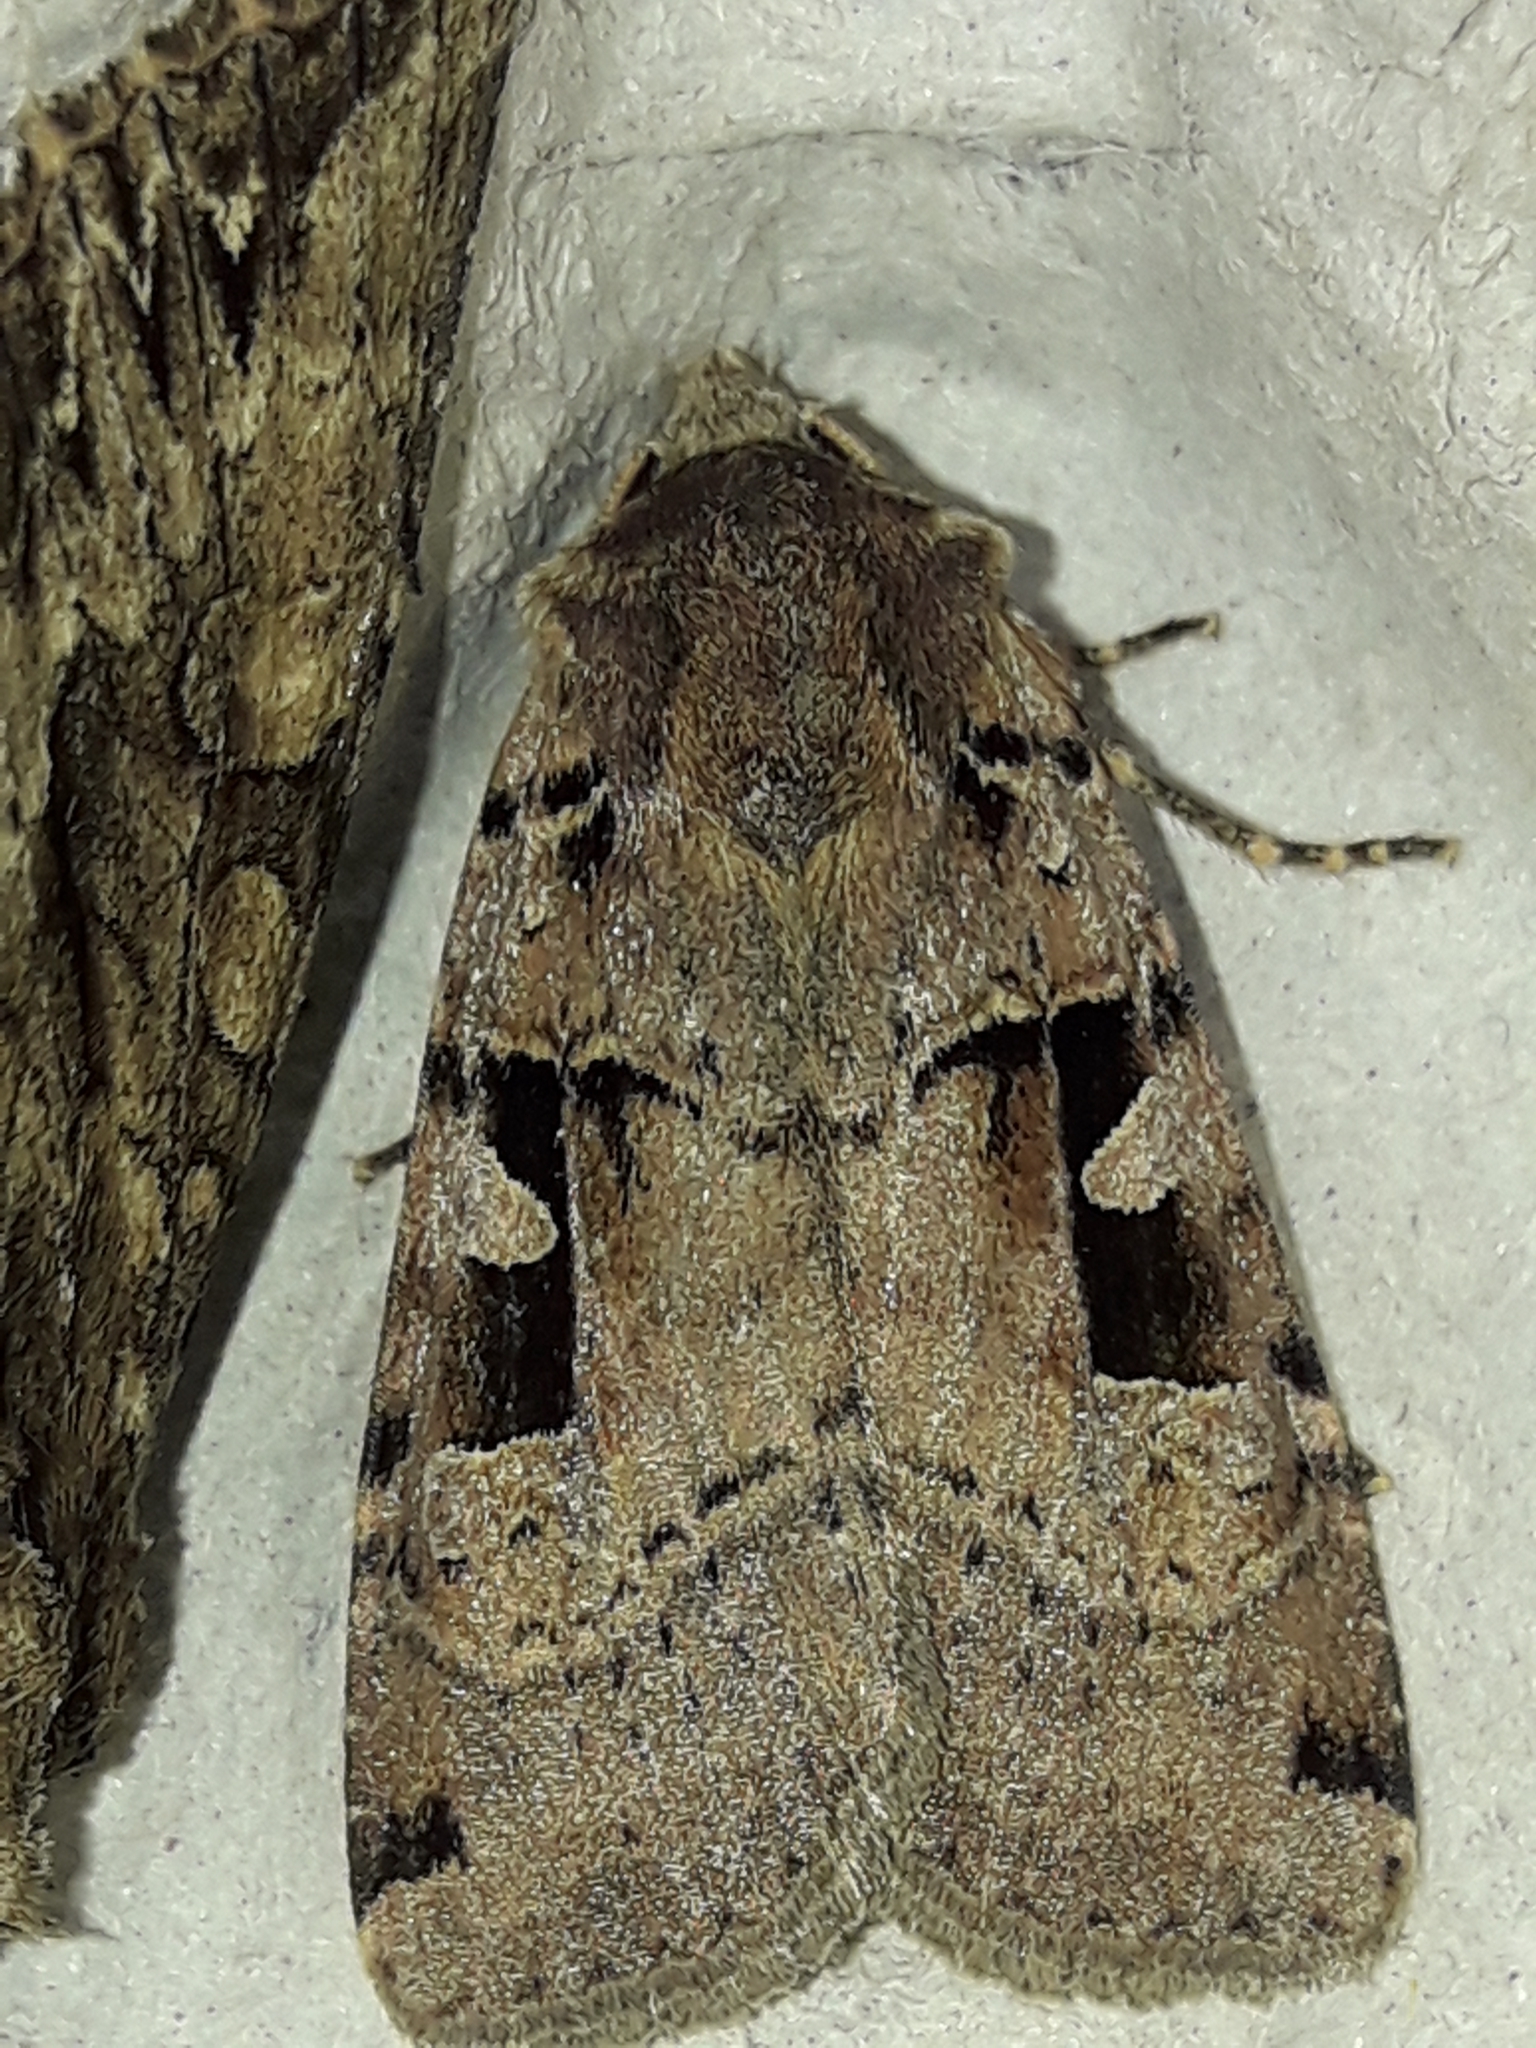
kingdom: Animalia
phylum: Arthropoda
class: Insecta
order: Lepidoptera
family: Noctuidae
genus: Xestia
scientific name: Xestia triangulum
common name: Double square-spot
